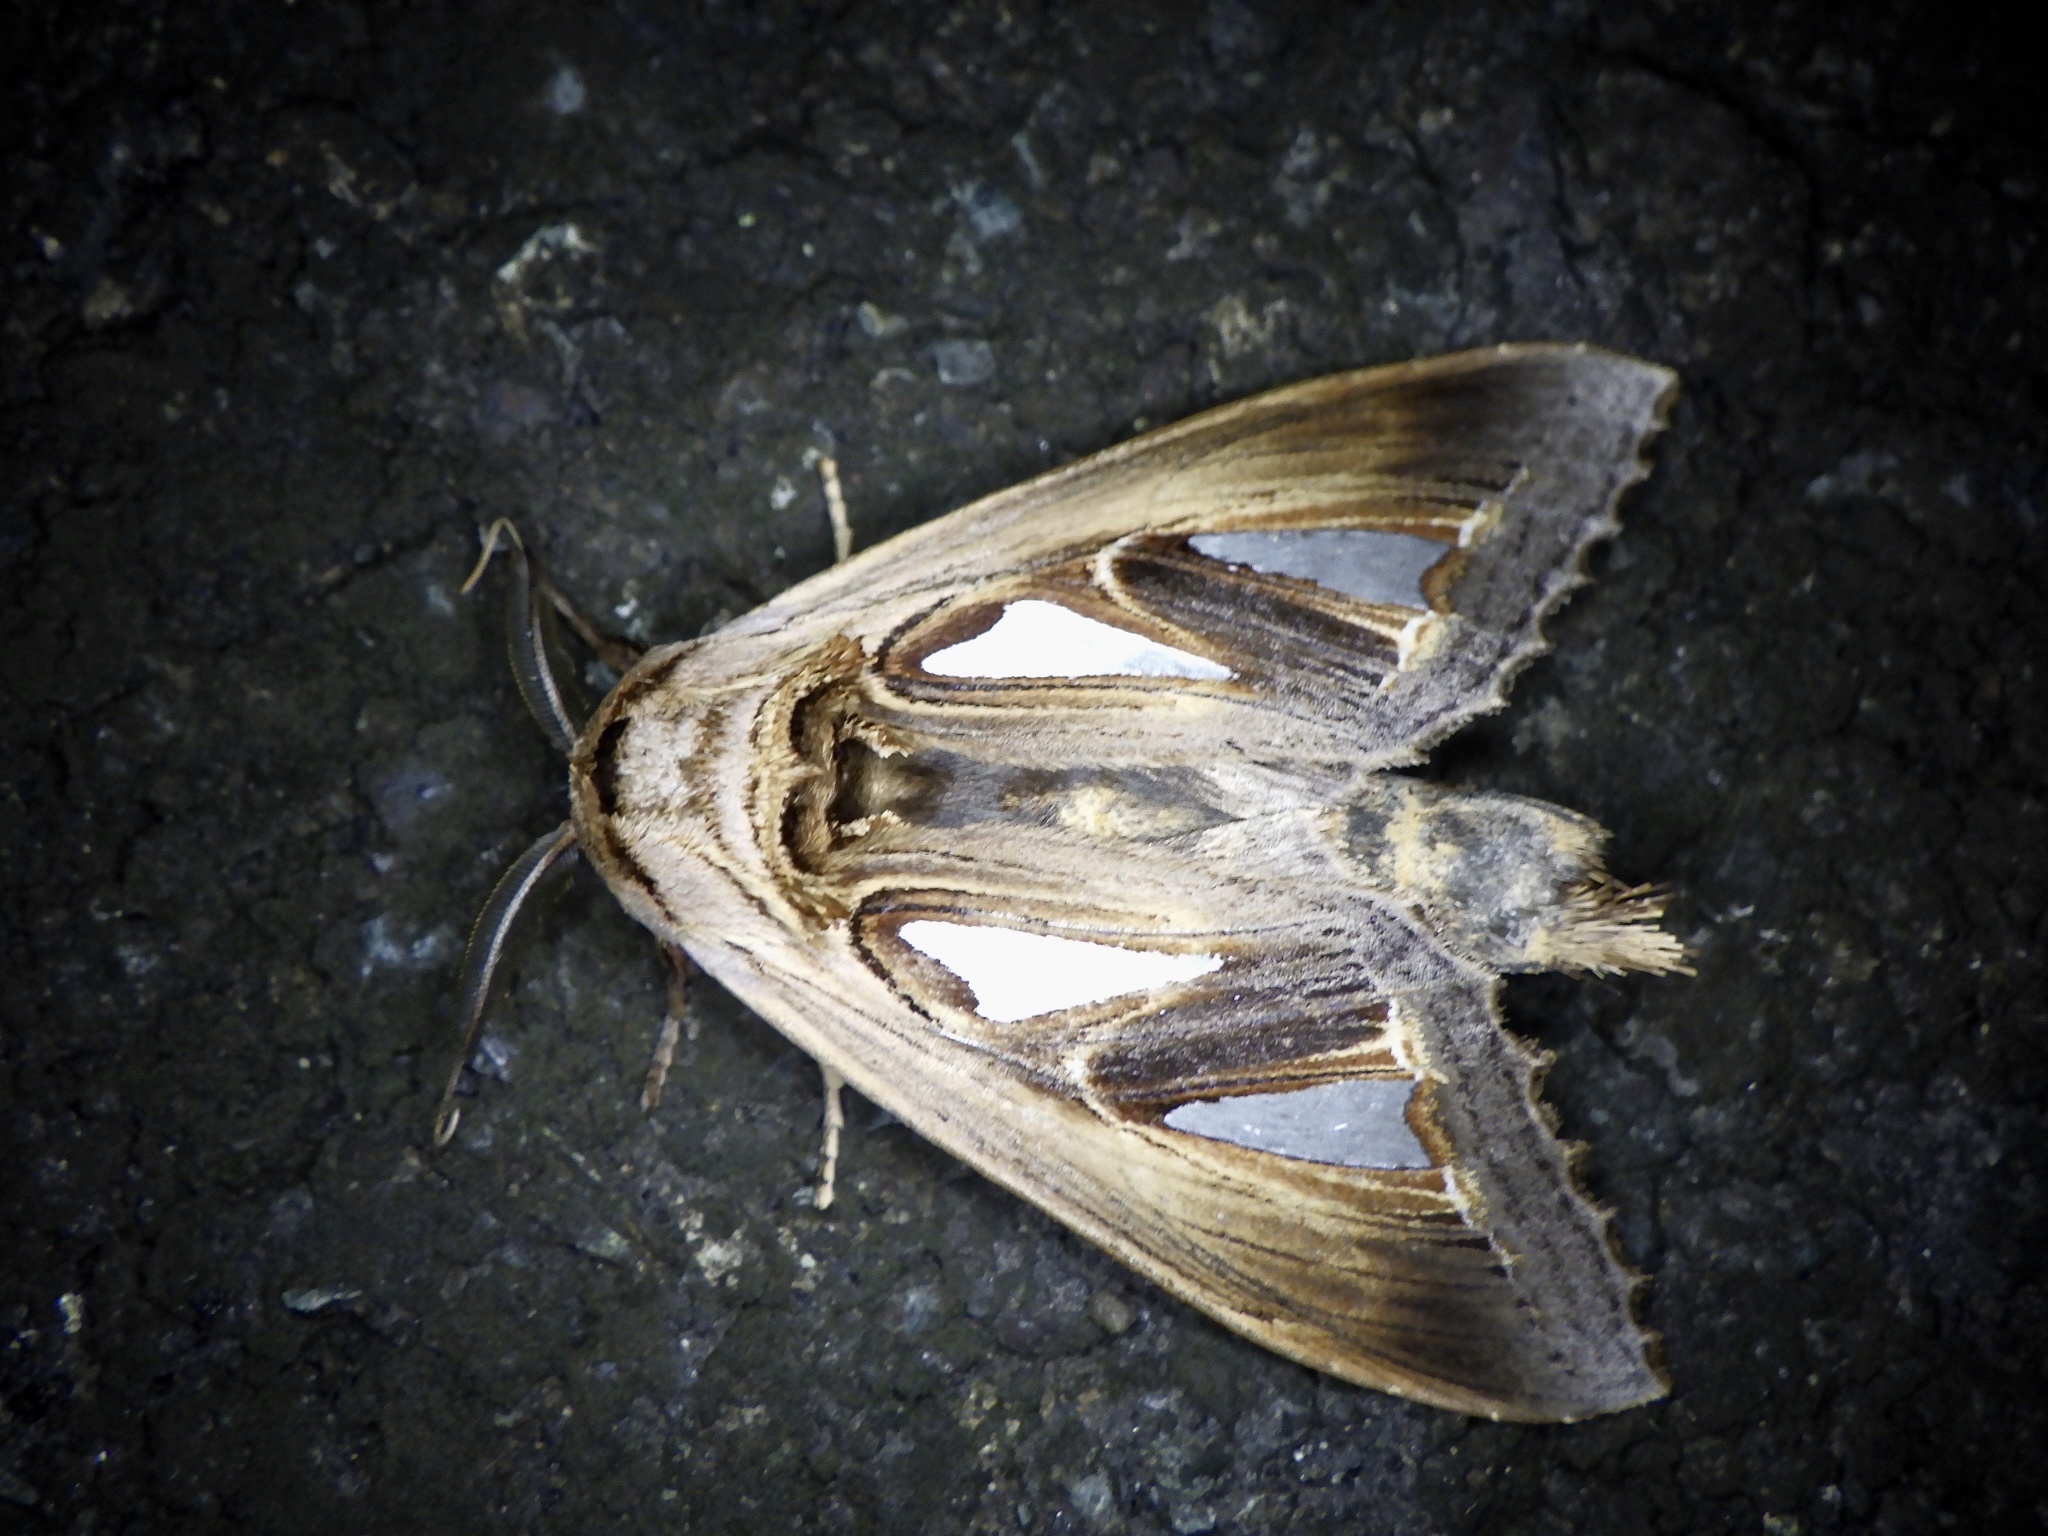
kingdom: Animalia
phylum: Arthropoda
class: Insecta
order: Lepidoptera
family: Notodontidae
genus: Tarsolepis
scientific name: Tarsolepis japonica
